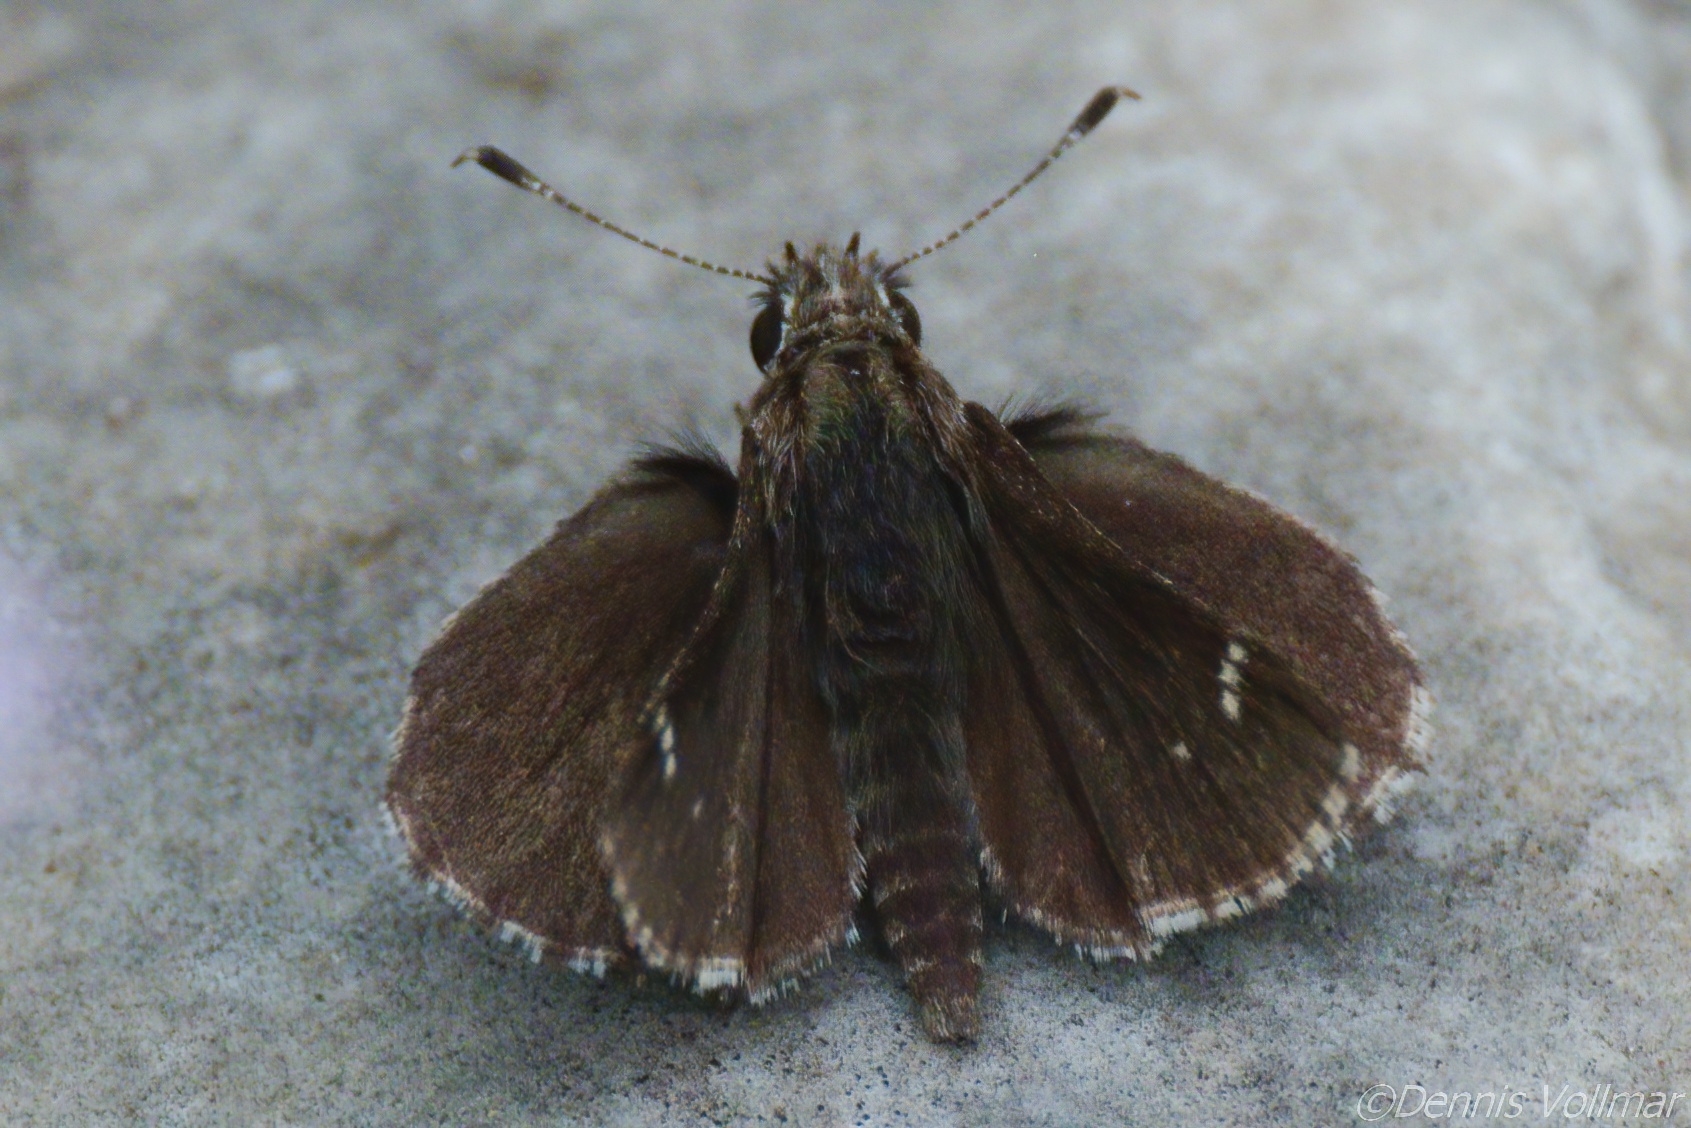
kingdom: Animalia
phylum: Arthropoda
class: Insecta
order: Lepidoptera
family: Hesperiidae
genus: Mastor
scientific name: Mastor nysa
